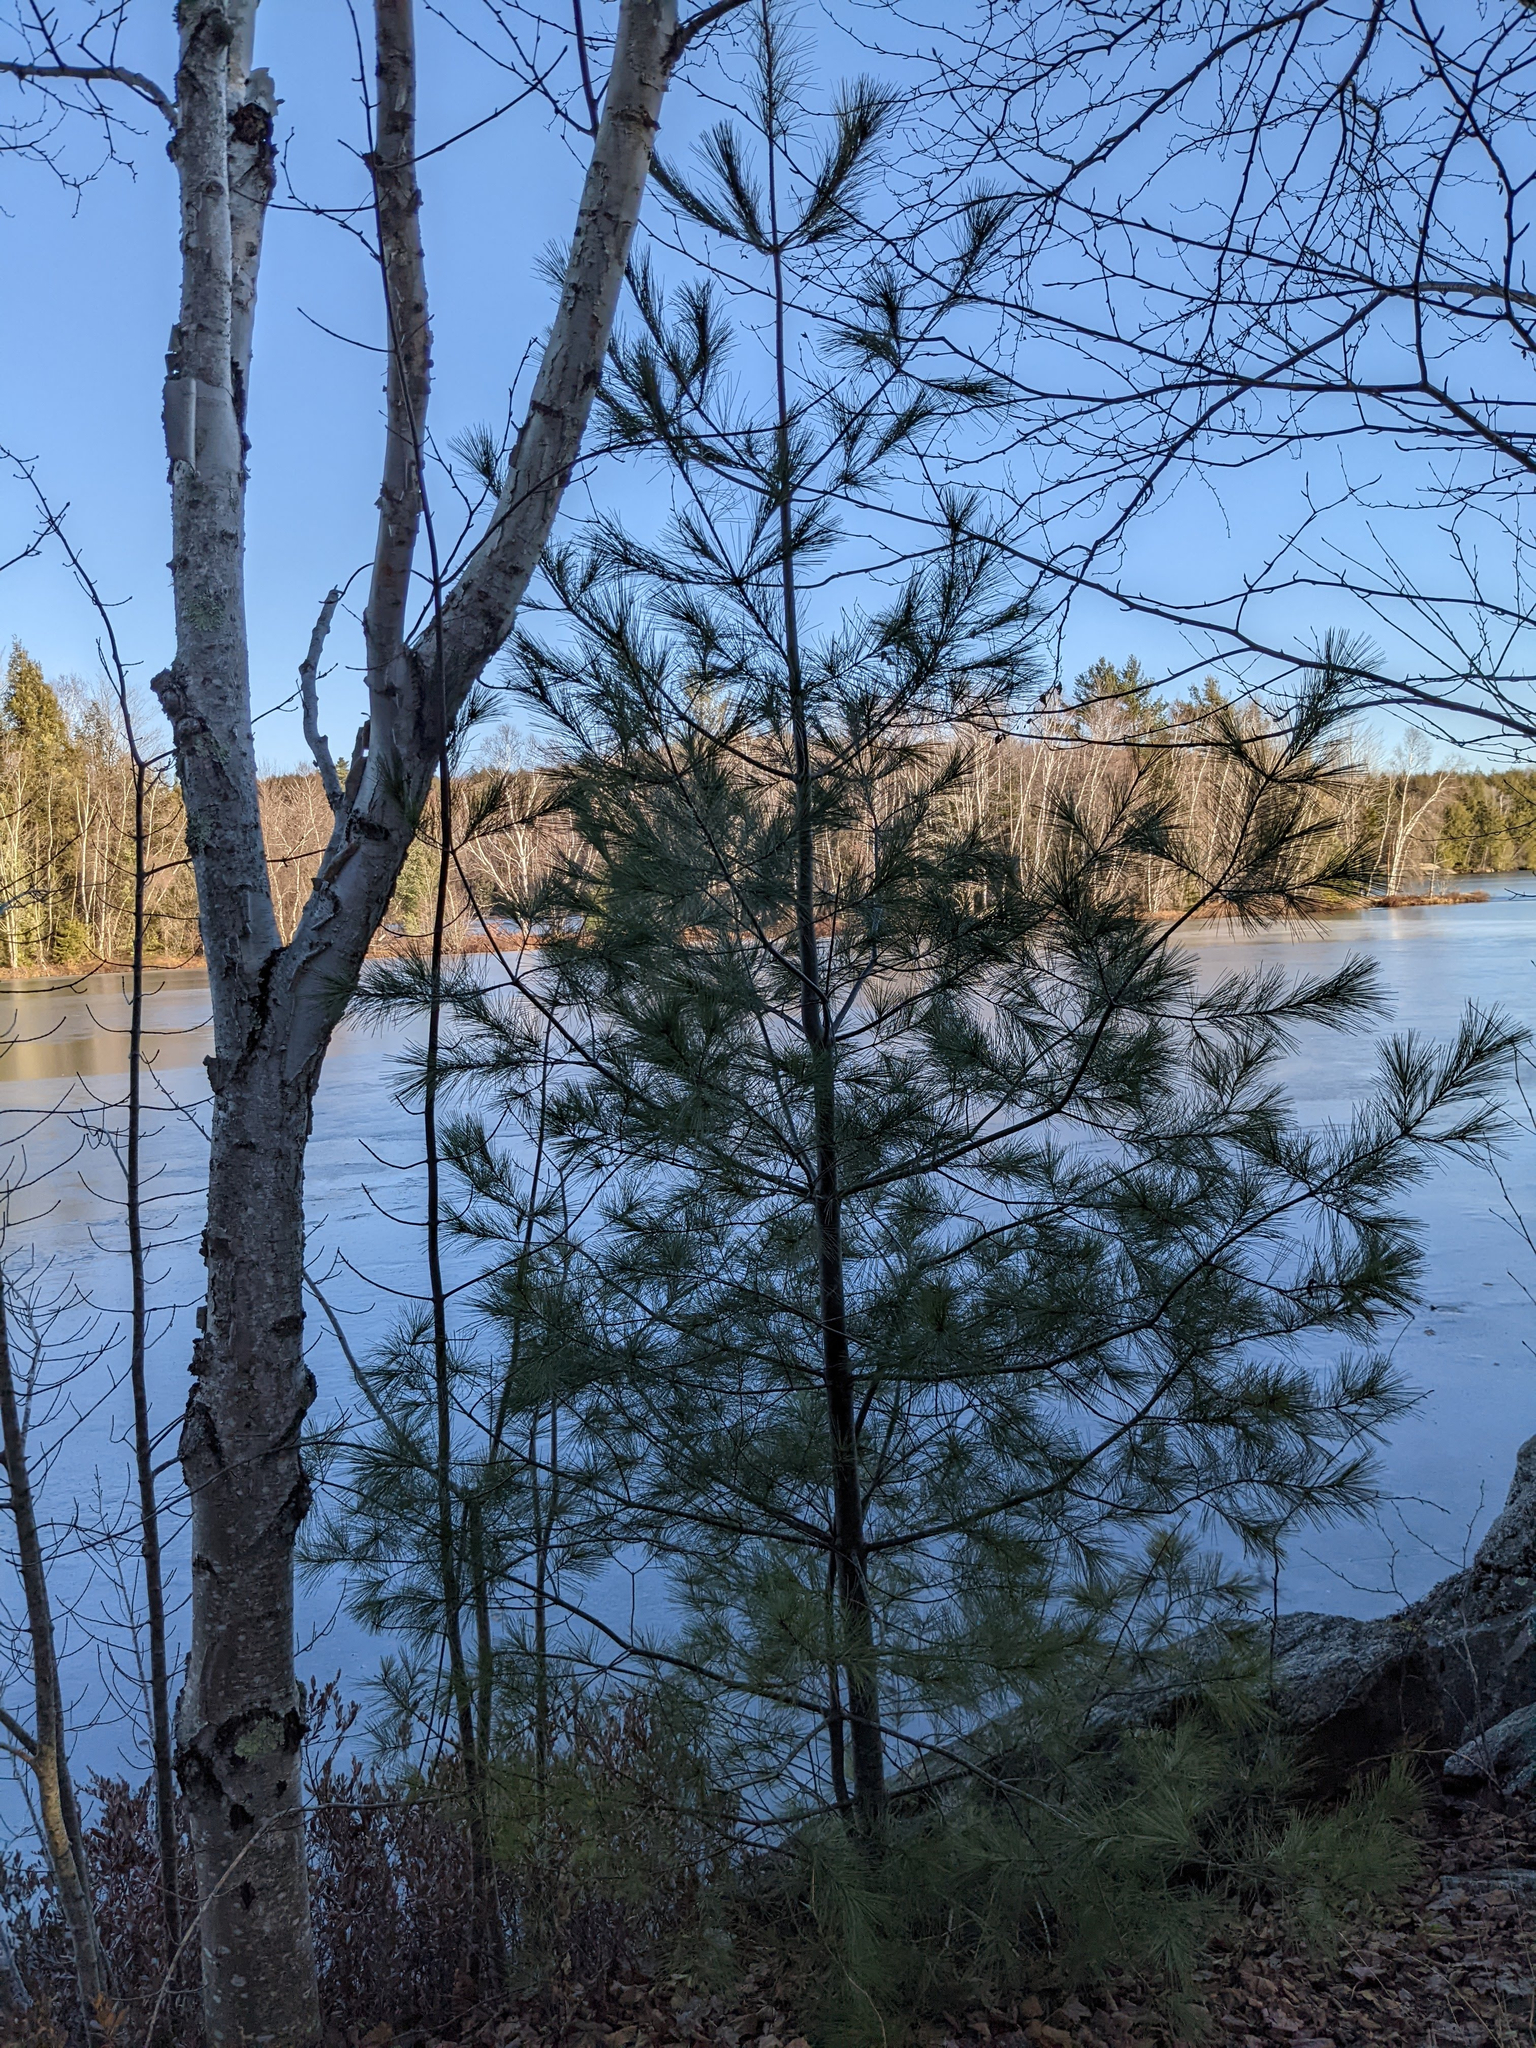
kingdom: Plantae
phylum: Tracheophyta
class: Pinopsida
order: Pinales
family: Pinaceae
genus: Pinus
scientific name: Pinus strobus
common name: Weymouth pine
